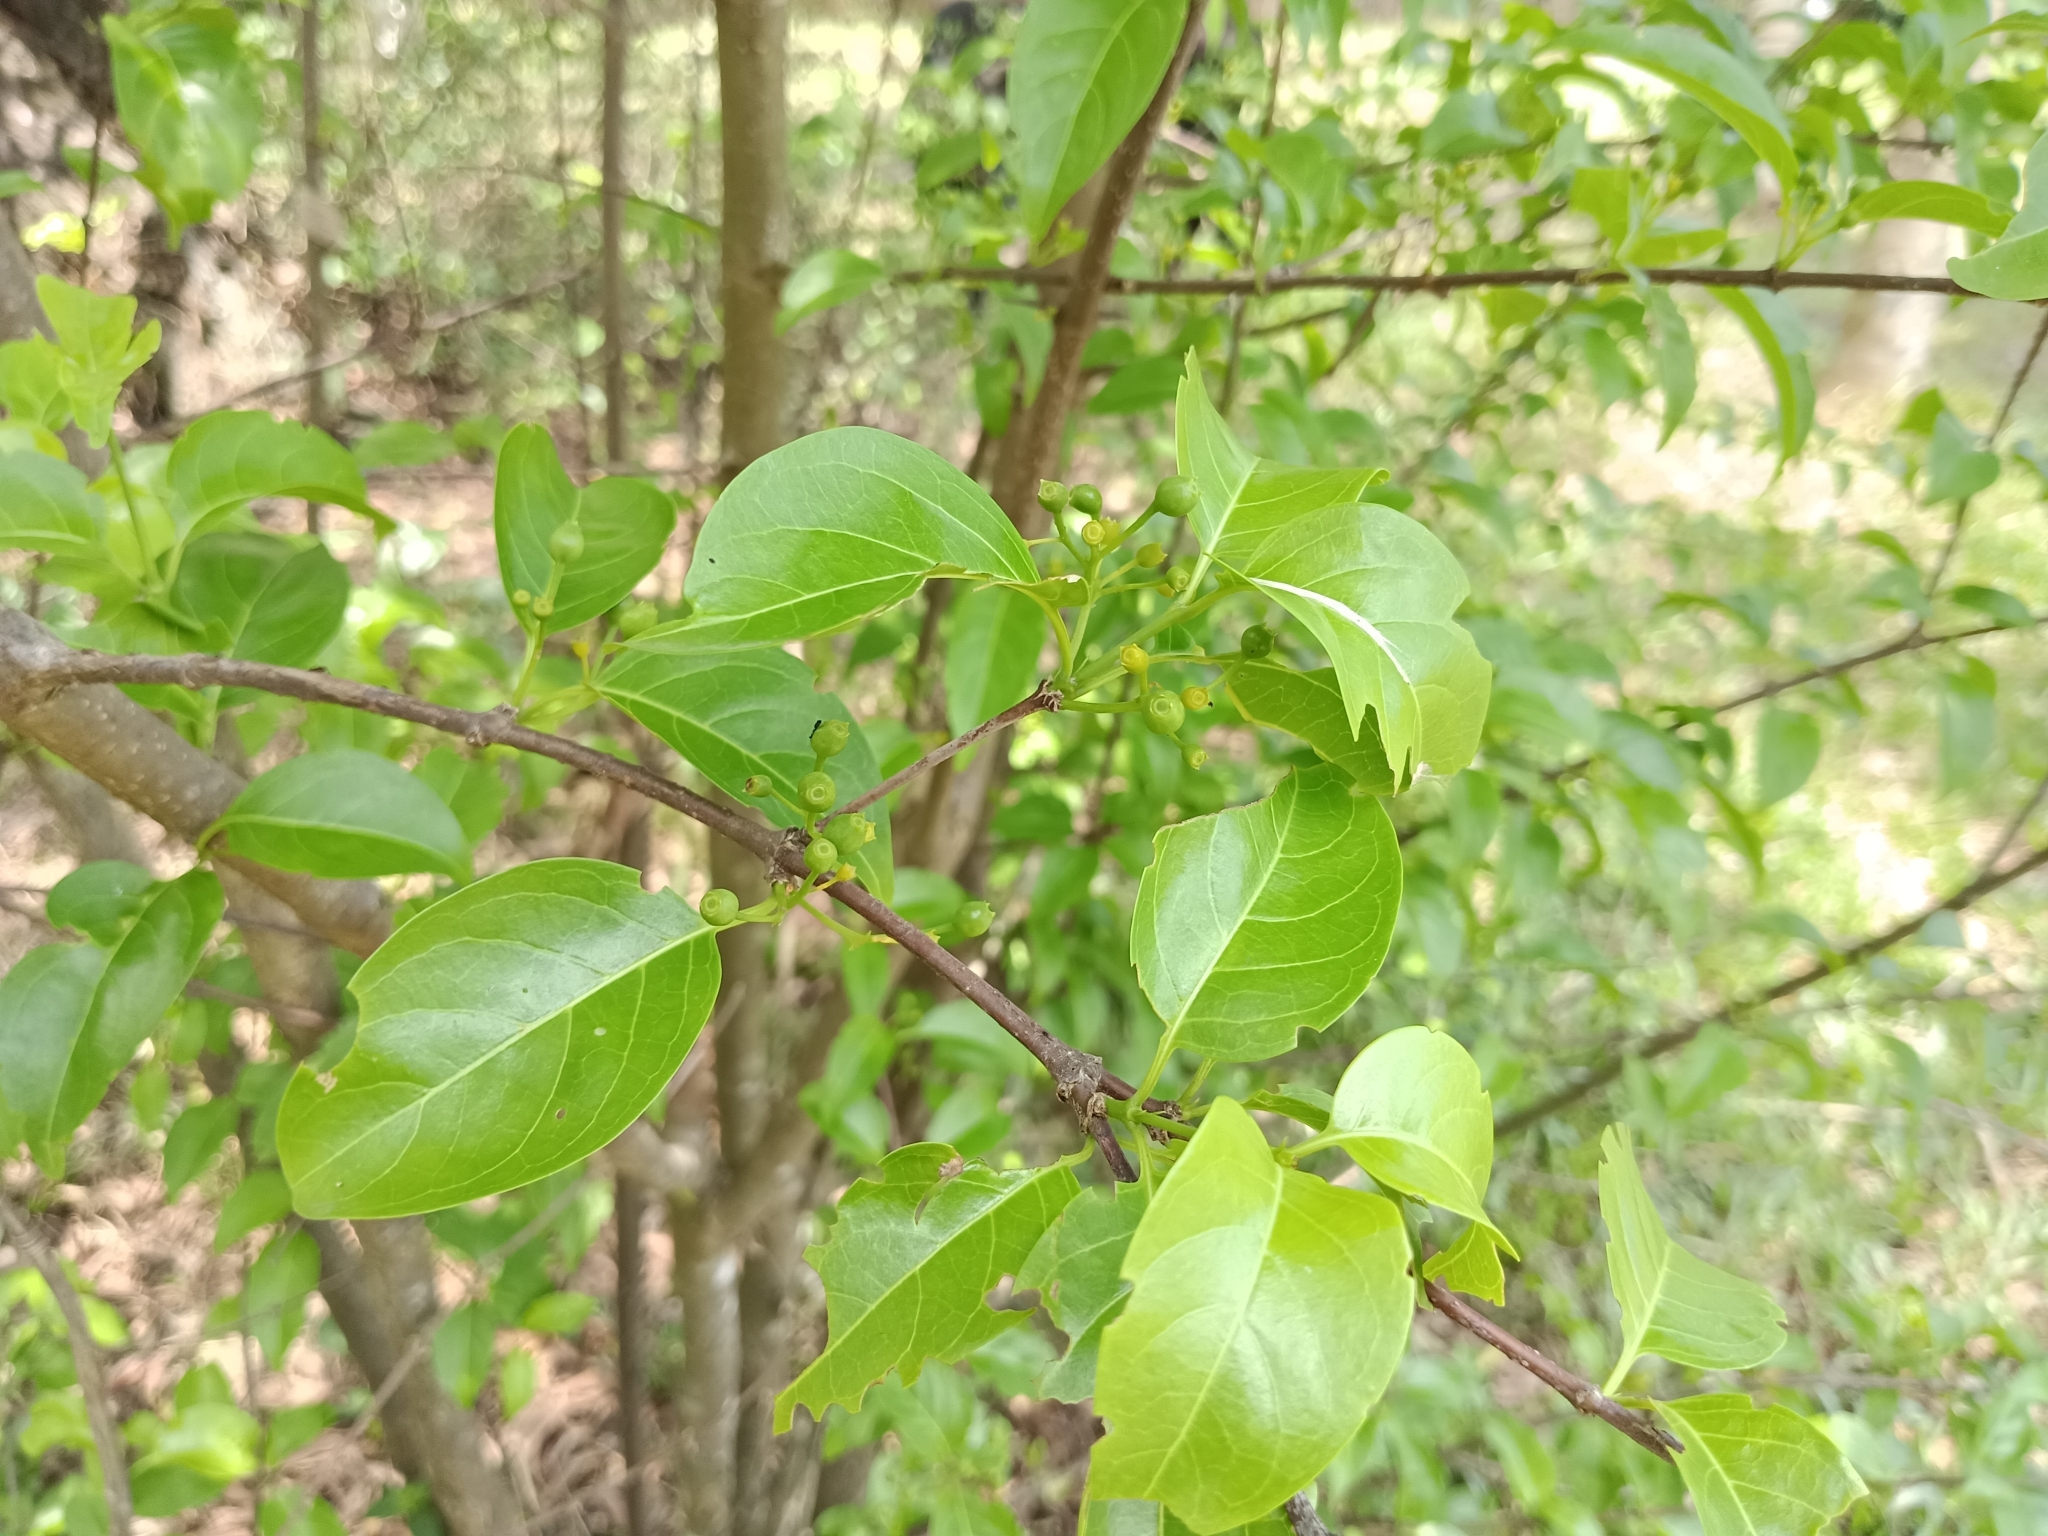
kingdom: Plantae
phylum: Tracheophyta
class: Magnoliopsida
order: Gentianales
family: Rubiaceae
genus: Canthium
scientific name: Canthium coromandelicum
